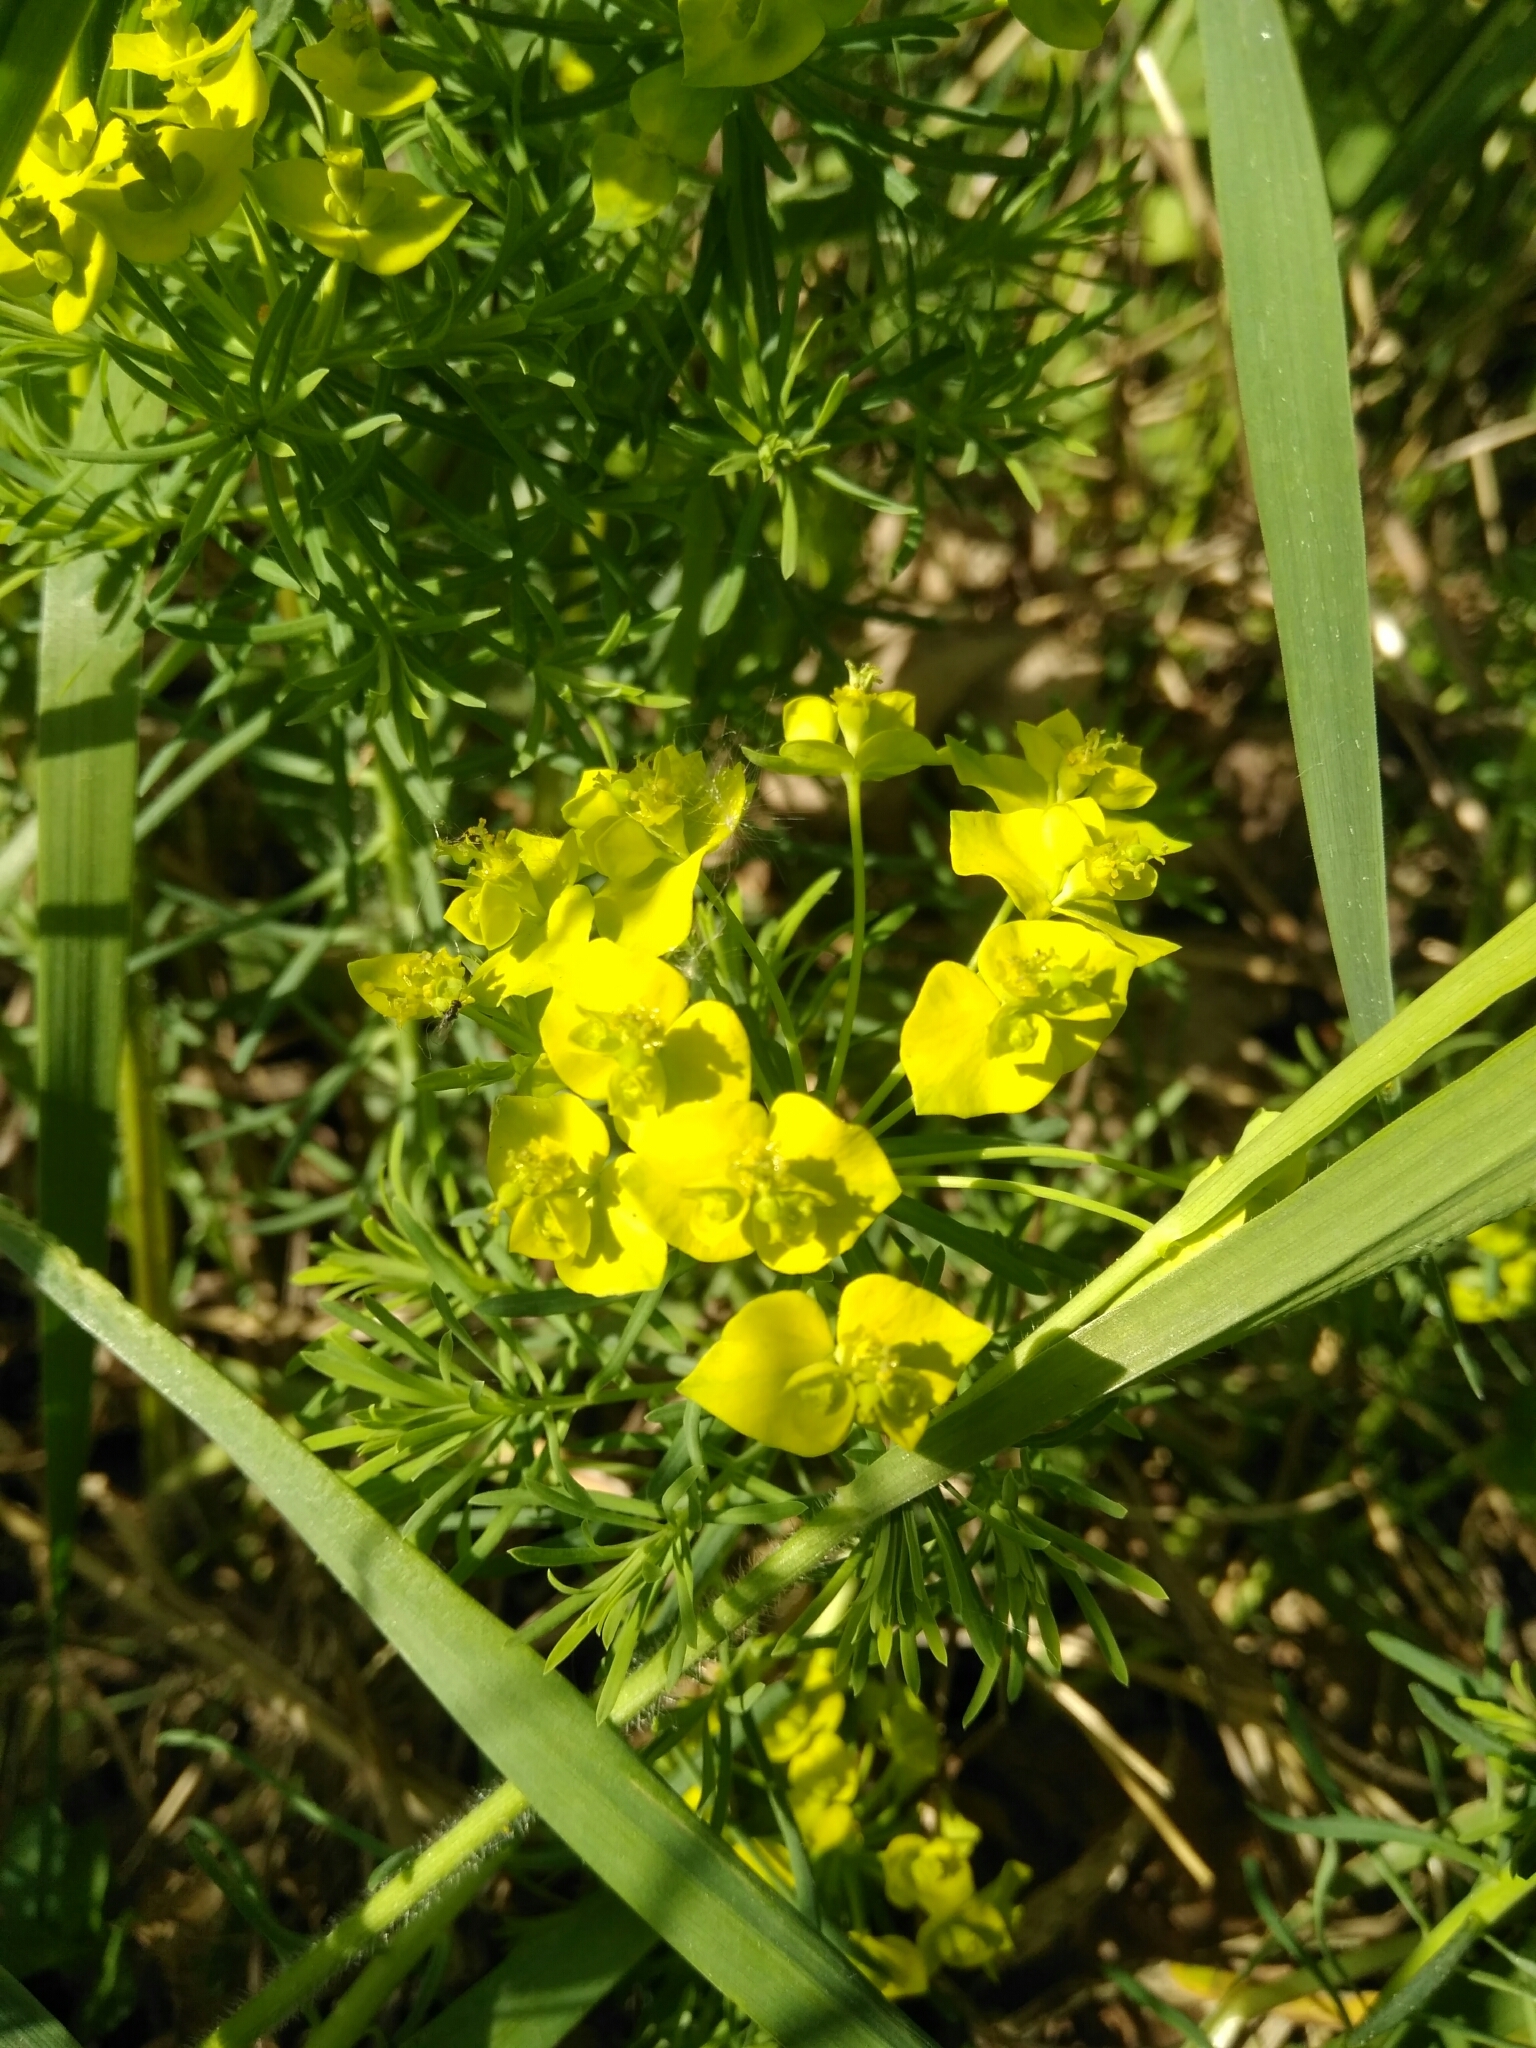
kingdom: Plantae
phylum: Tracheophyta
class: Magnoliopsida
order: Malpighiales
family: Euphorbiaceae
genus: Euphorbia
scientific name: Euphorbia cyparissias
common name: Cypress spurge
